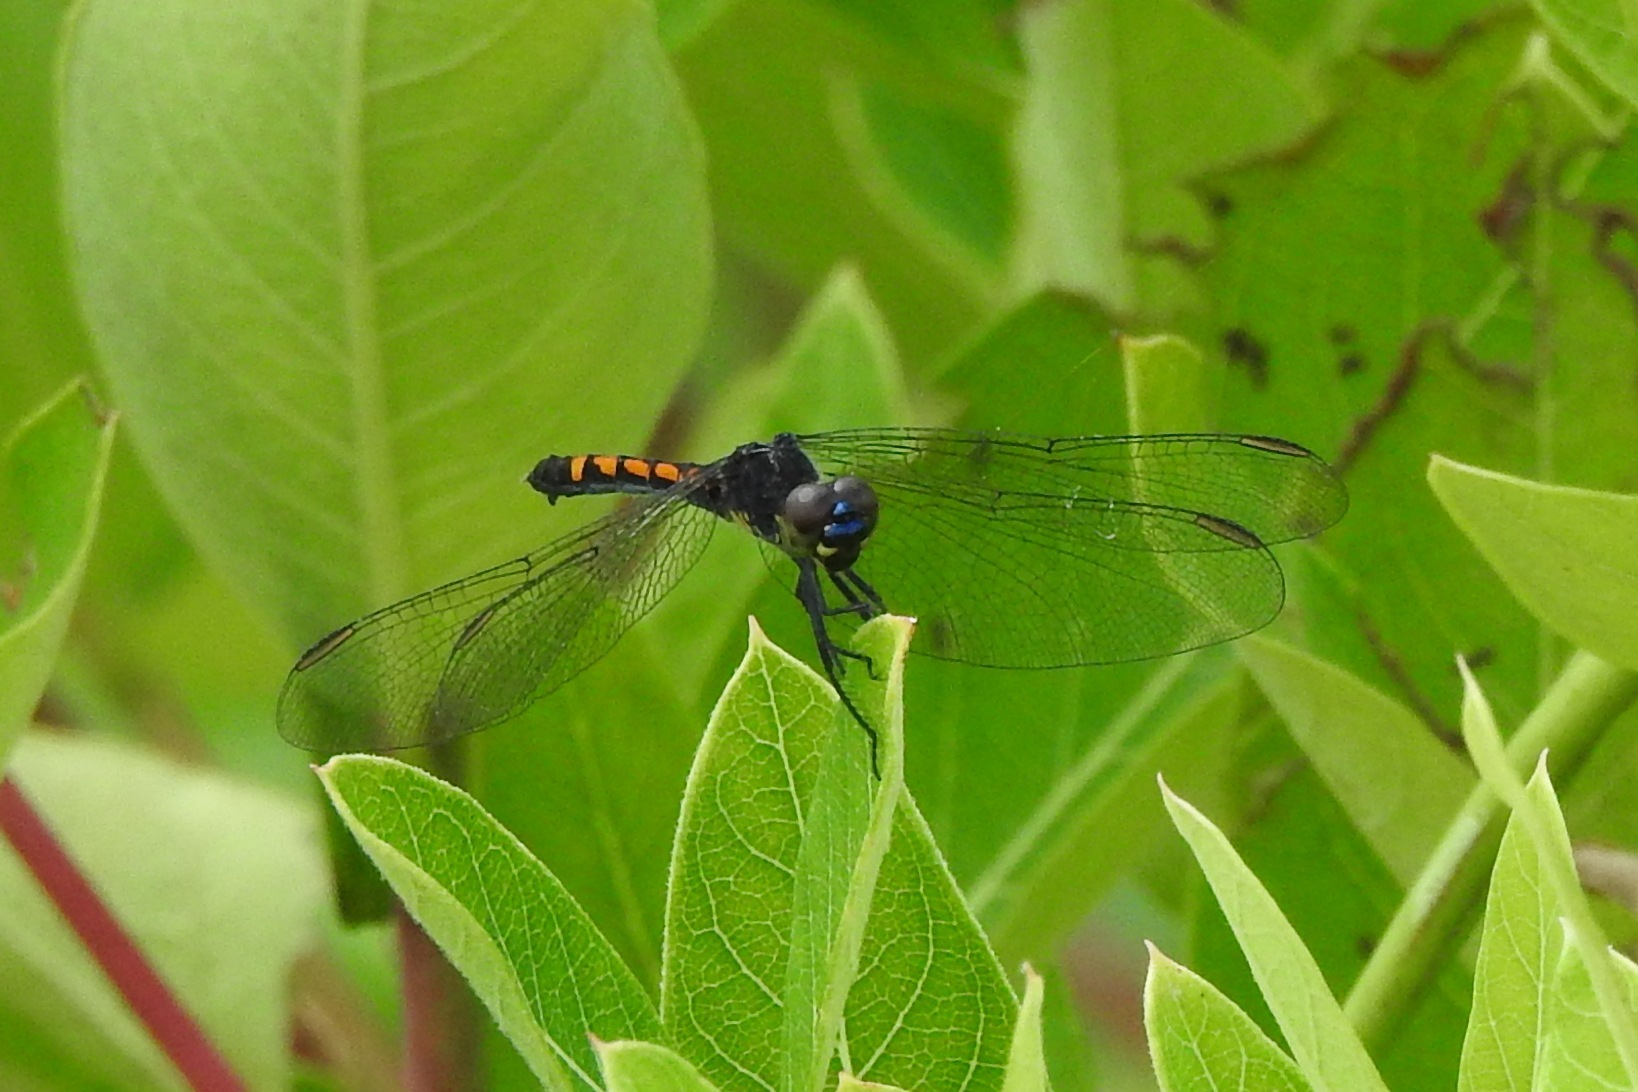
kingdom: Animalia
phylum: Arthropoda
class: Insecta
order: Odonata
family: Libellulidae
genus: Erythrodiplax
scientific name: Erythrodiplax berenice
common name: Seaside dragonlet
